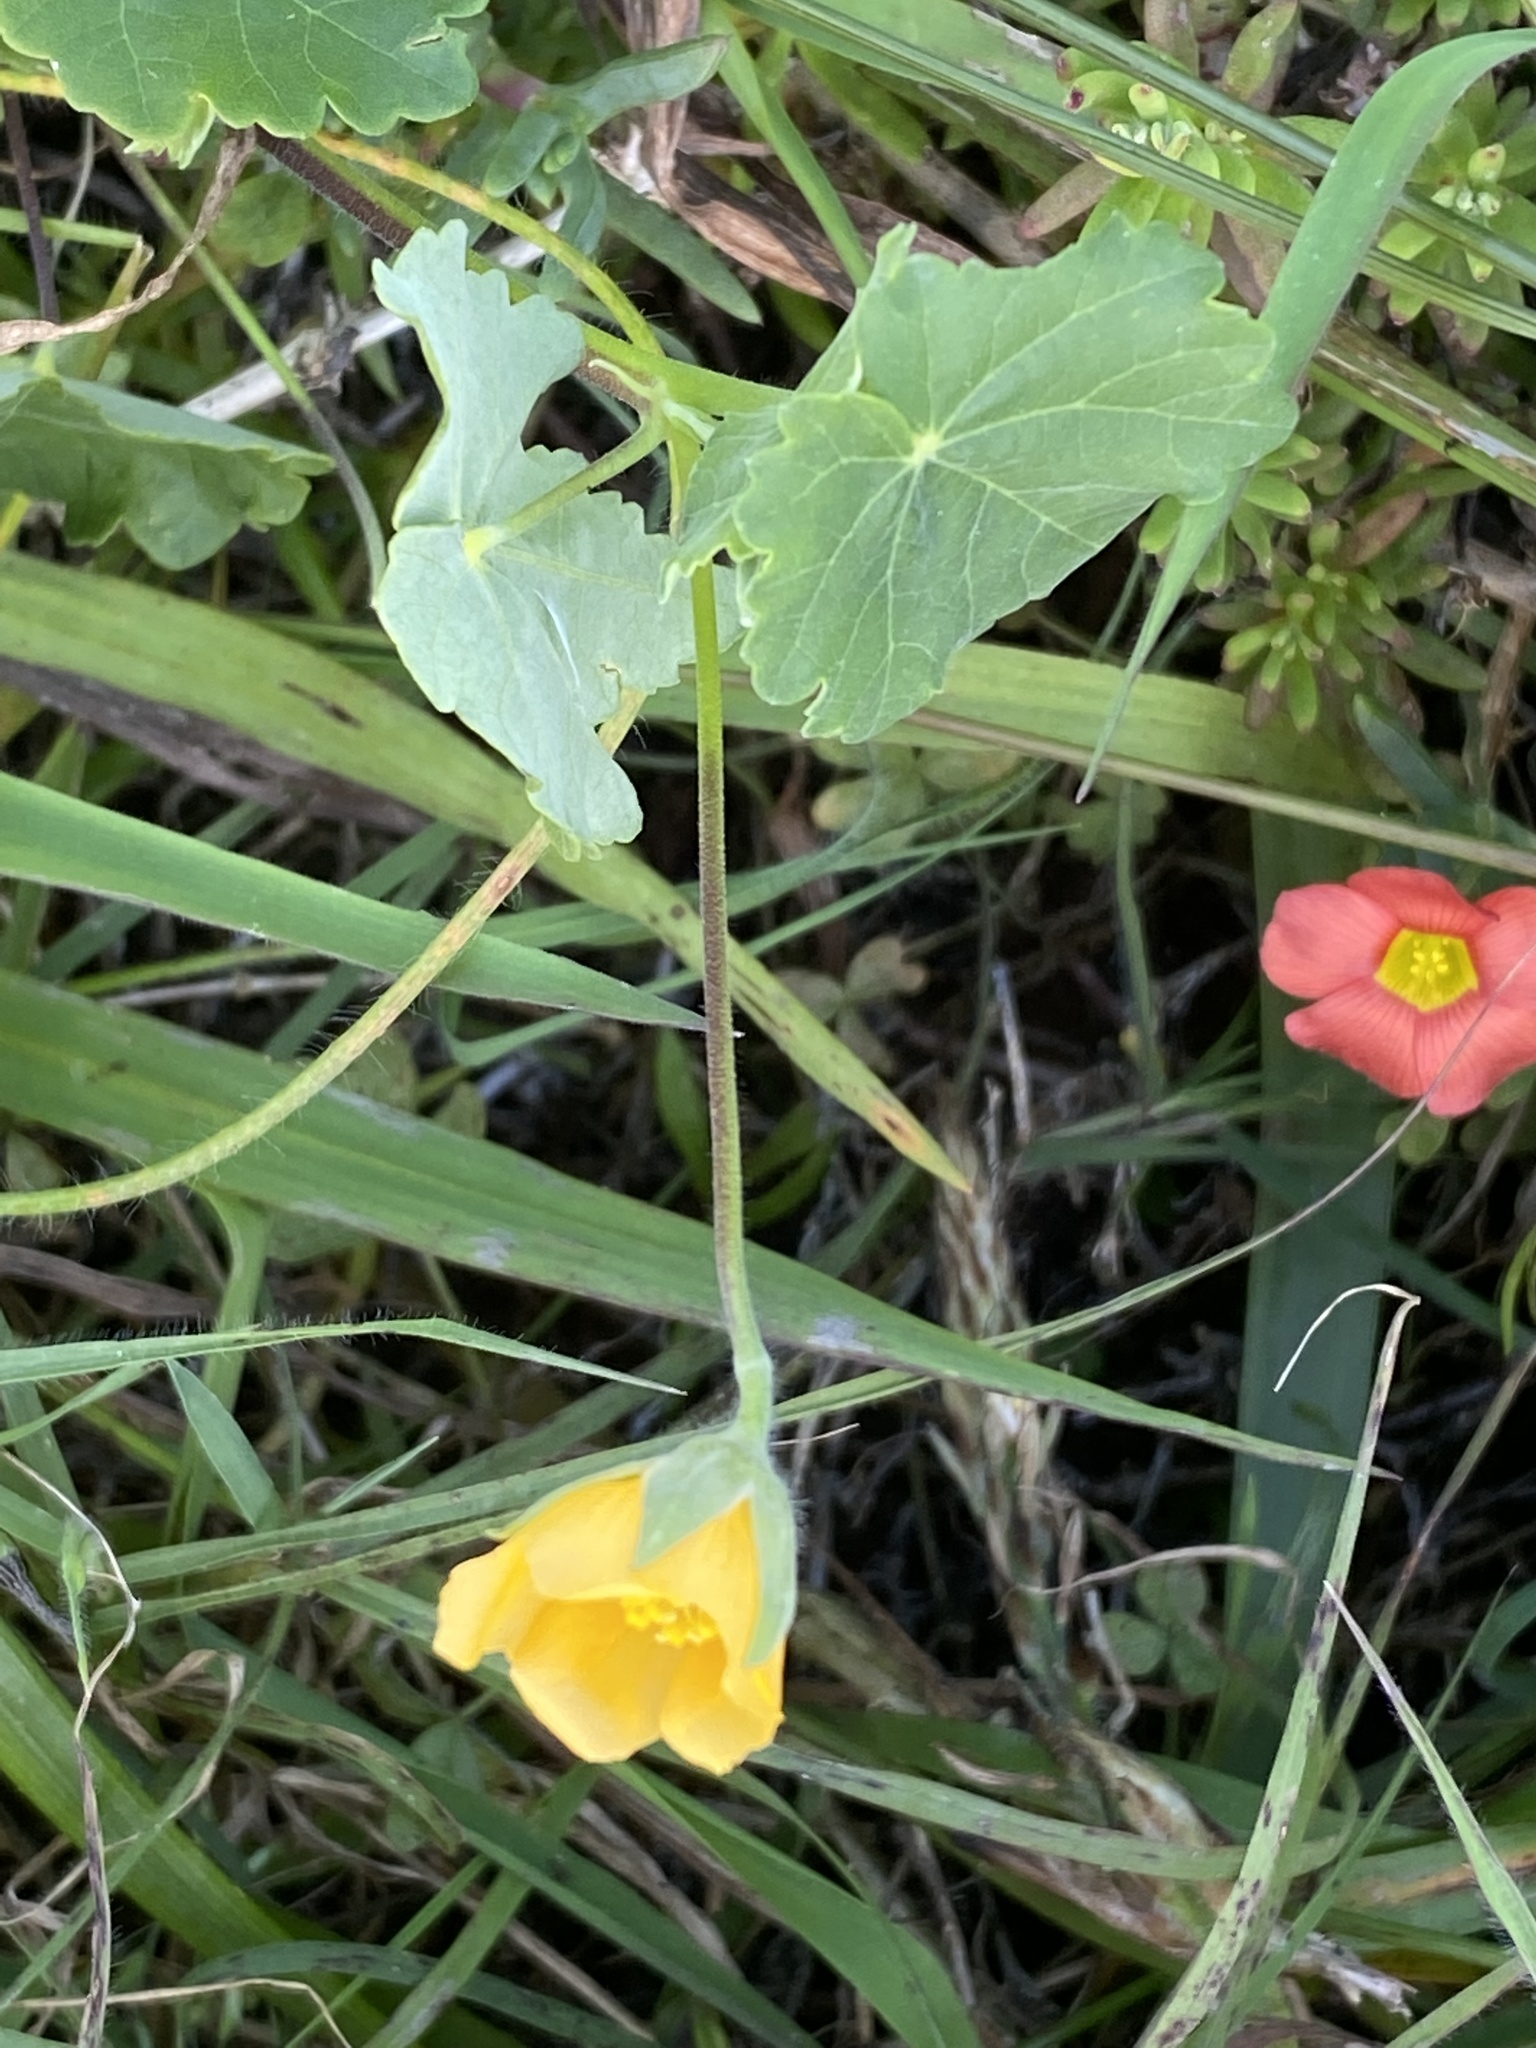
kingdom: Plantae
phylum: Tracheophyta
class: Magnoliopsida
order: Malvales
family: Malvaceae
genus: Abutilon
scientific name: Abutilon sonneratianum
